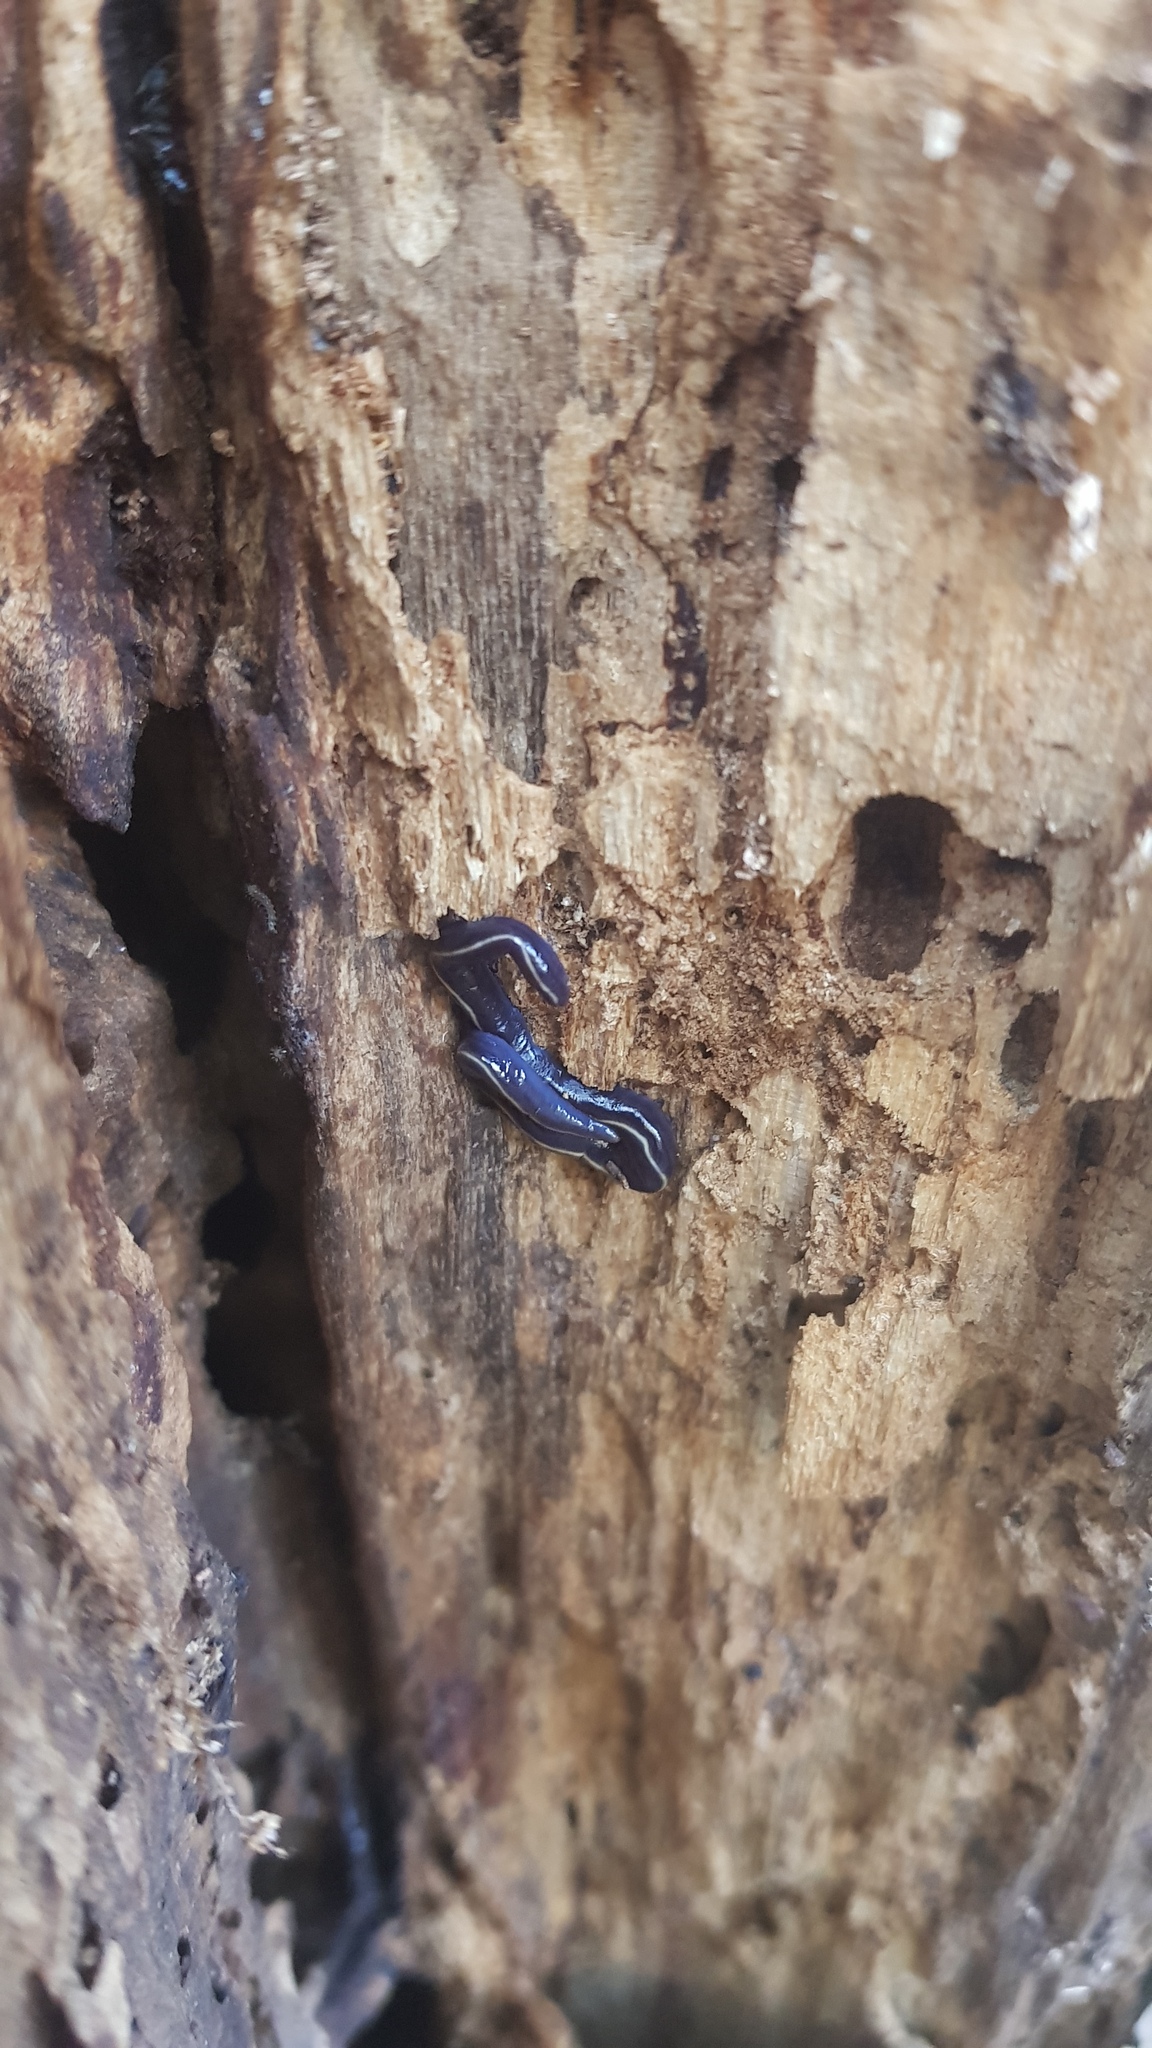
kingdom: Animalia
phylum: Platyhelminthes
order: Tricladida
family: Geoplanidae
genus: Caenoplana
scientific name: Caenoplana coerulea
